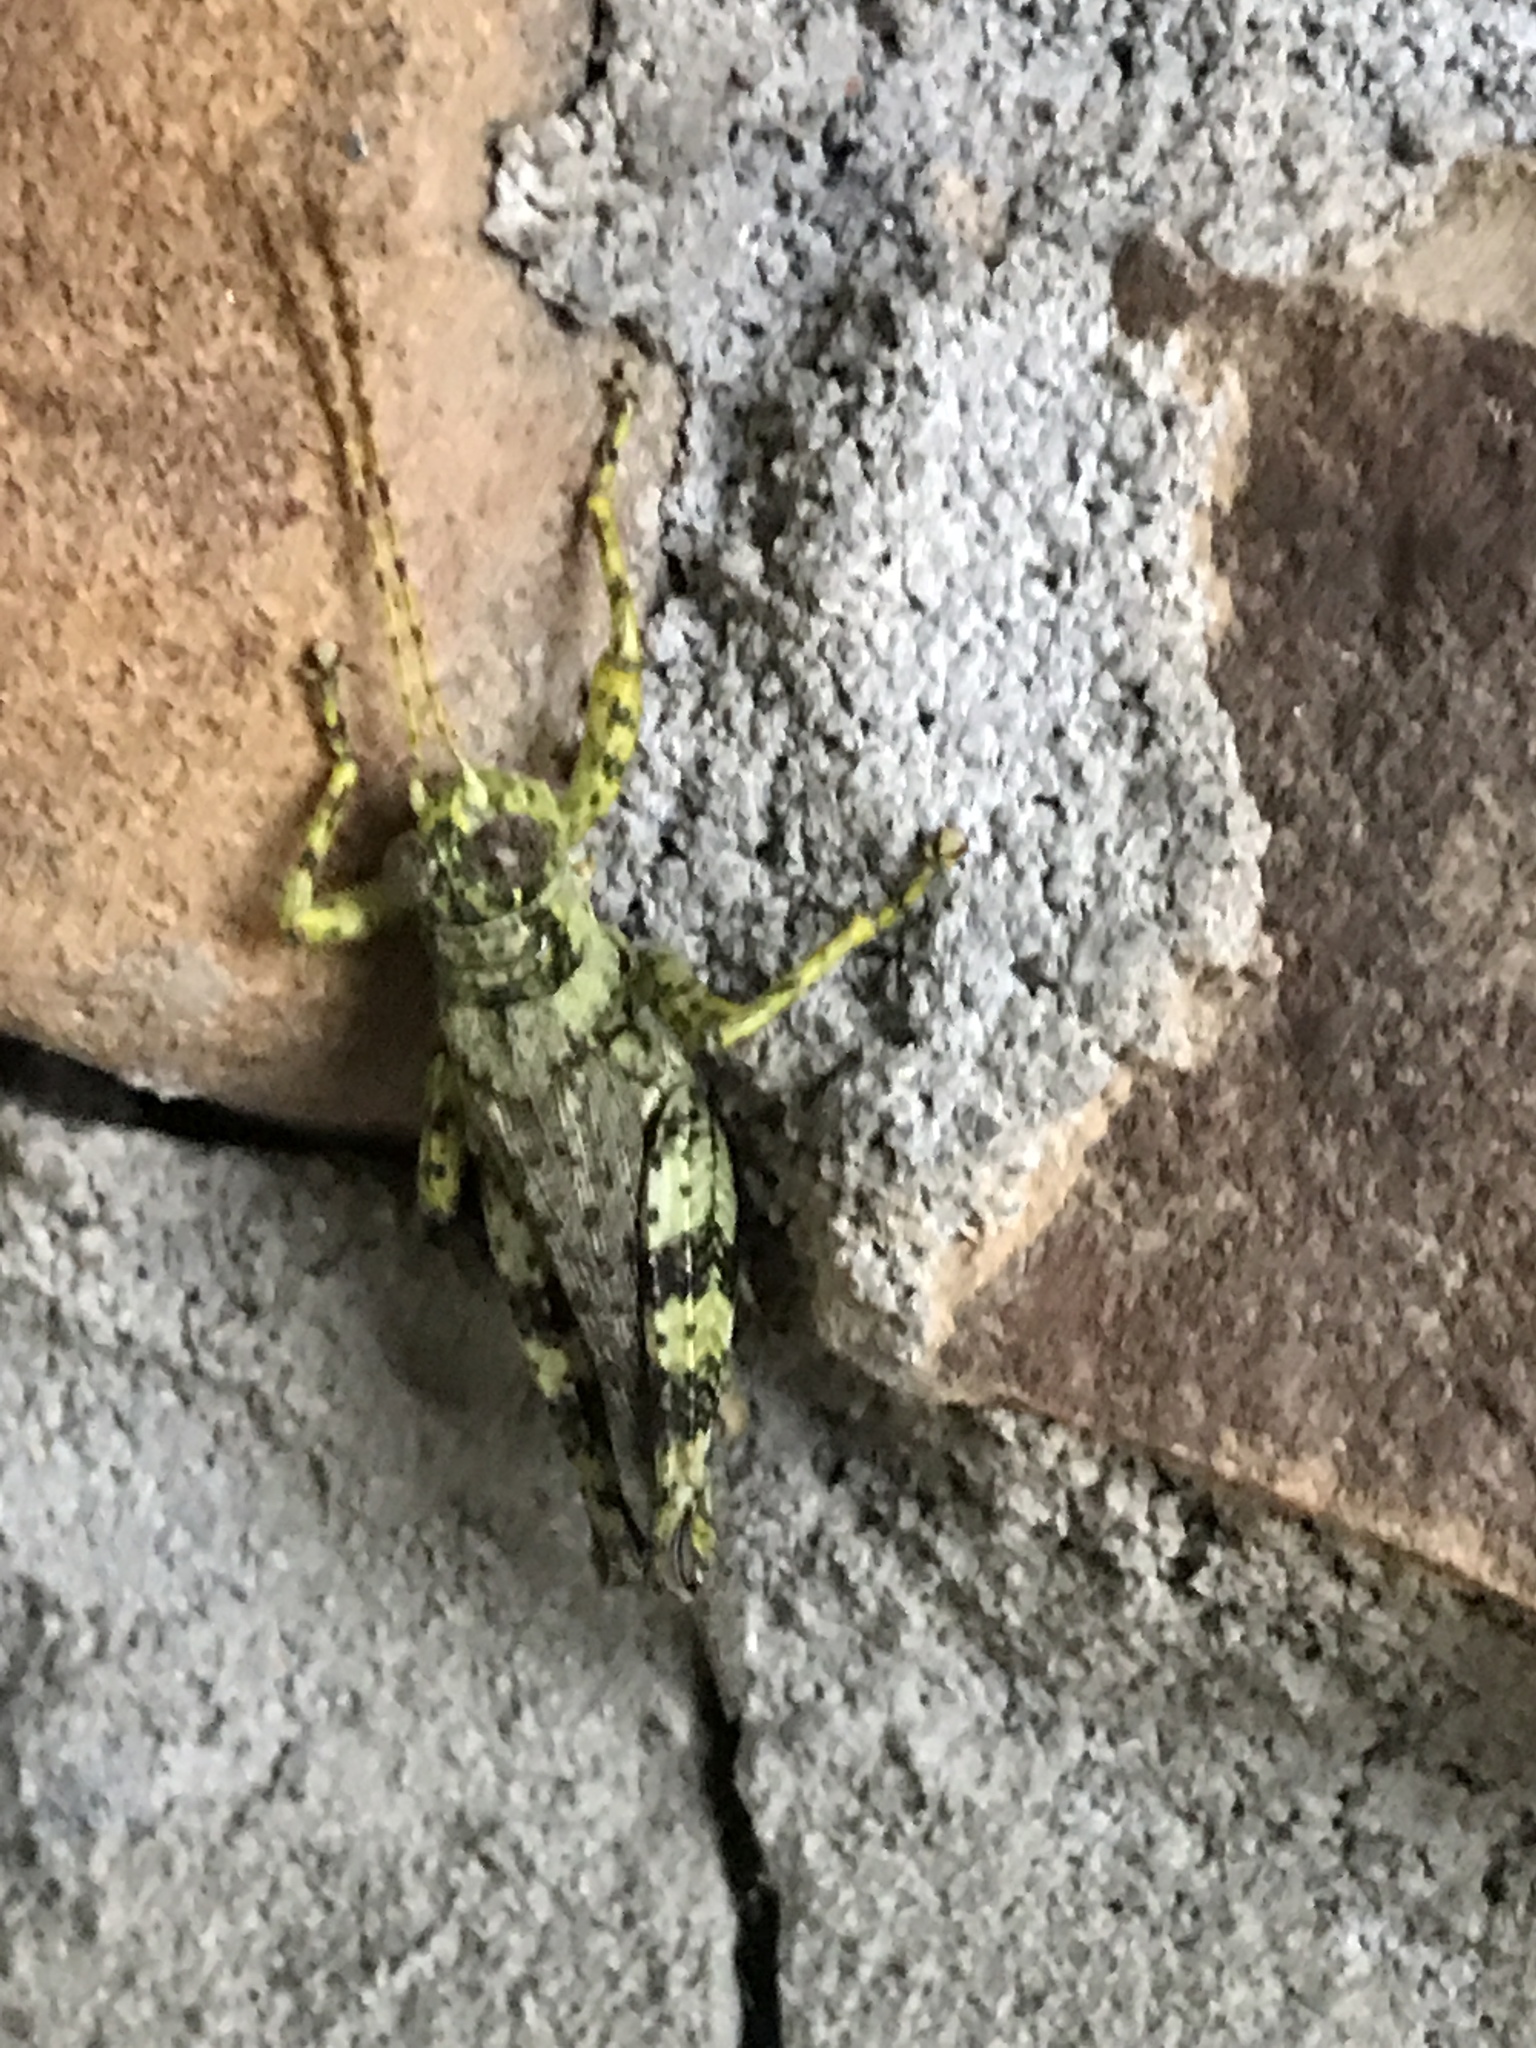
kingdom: Animalia
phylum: Arthropoda
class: Insecta
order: Orthoptera
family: Acrididae
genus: Melanoplus
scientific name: Melanoplus punctulatus
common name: Pine-tree spur-throat grasshopper
